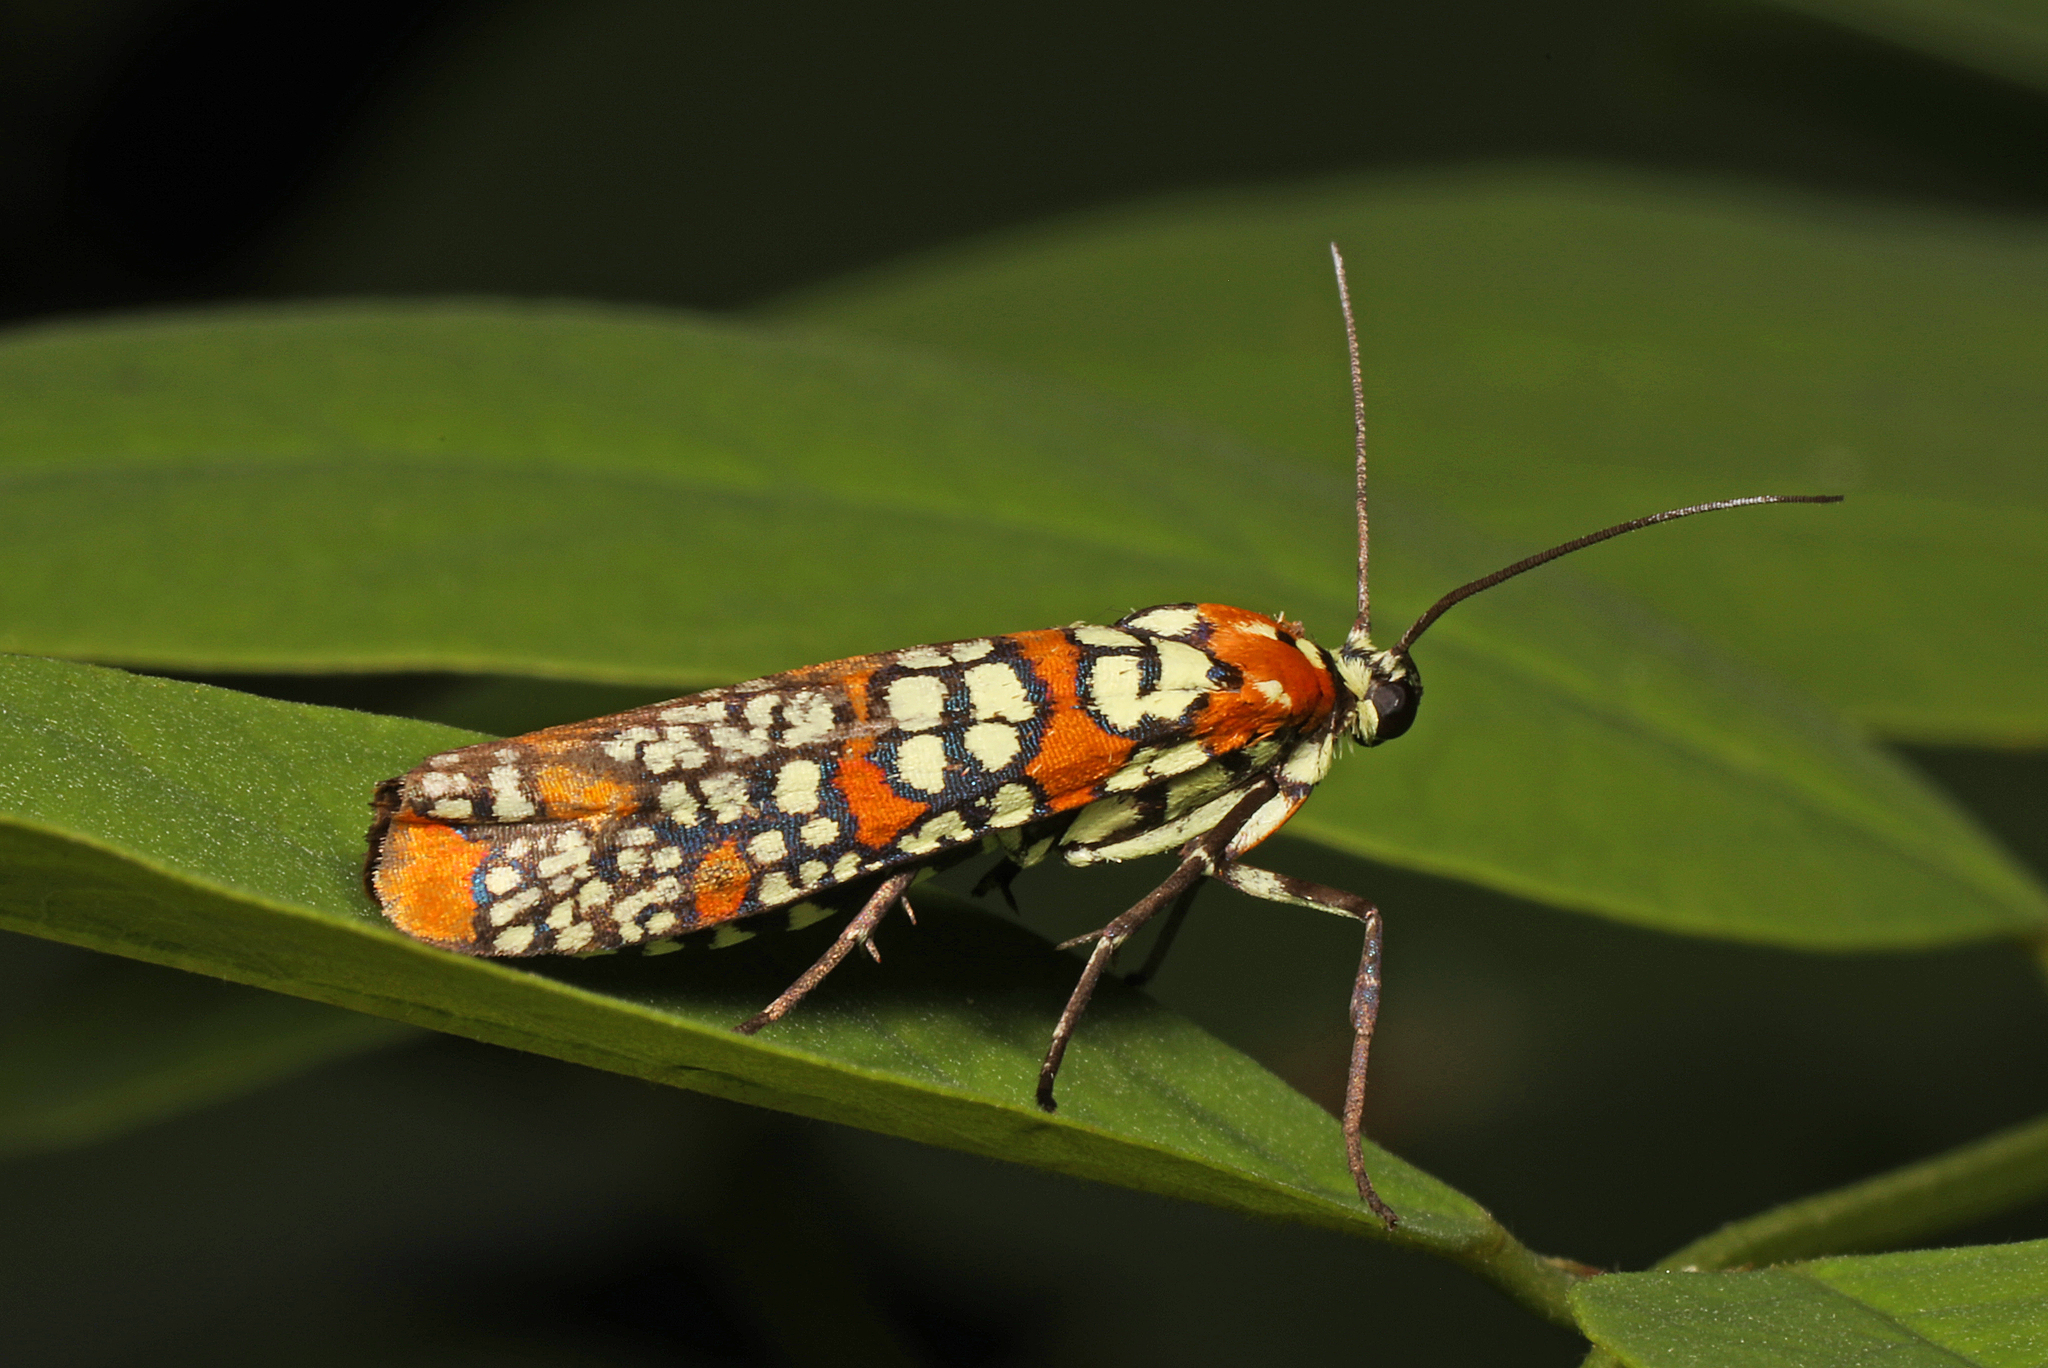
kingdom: Animalia
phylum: Arthropoda
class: Insecta
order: Lepidoptera
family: Attevidae
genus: Atteva
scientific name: Atteva punctella
